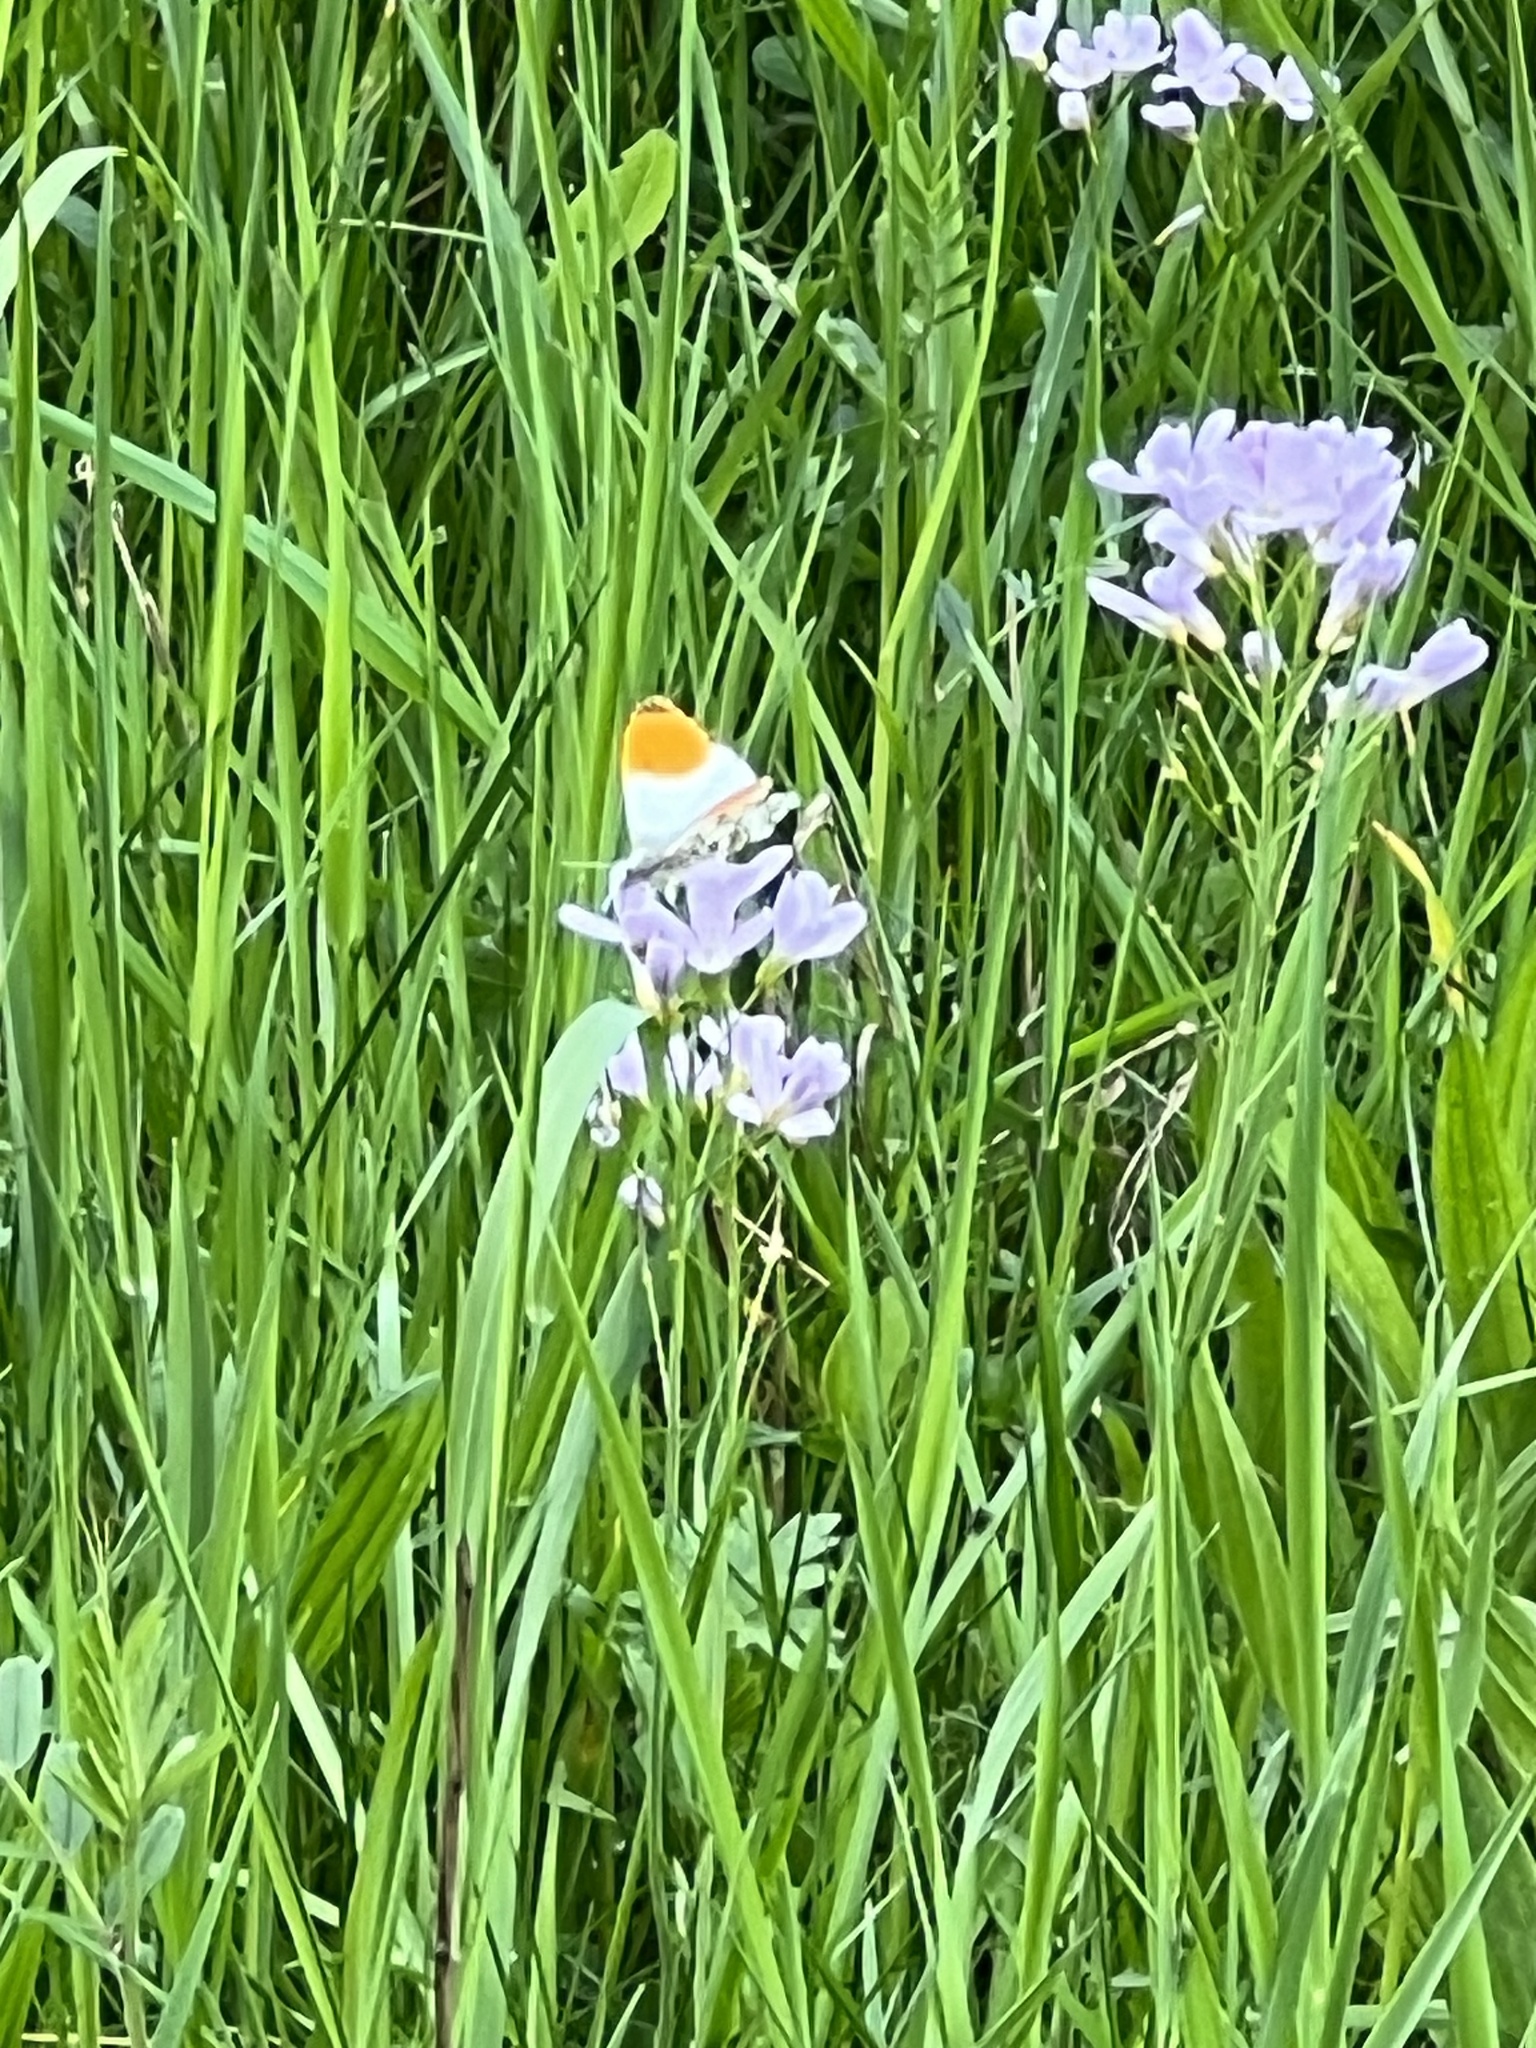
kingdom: Animalia
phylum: Arthropoda
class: Insecta
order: Lepidoptera
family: Pieridae
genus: Anthocharis
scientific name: Anthocharis cardamines
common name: Orange-tip
